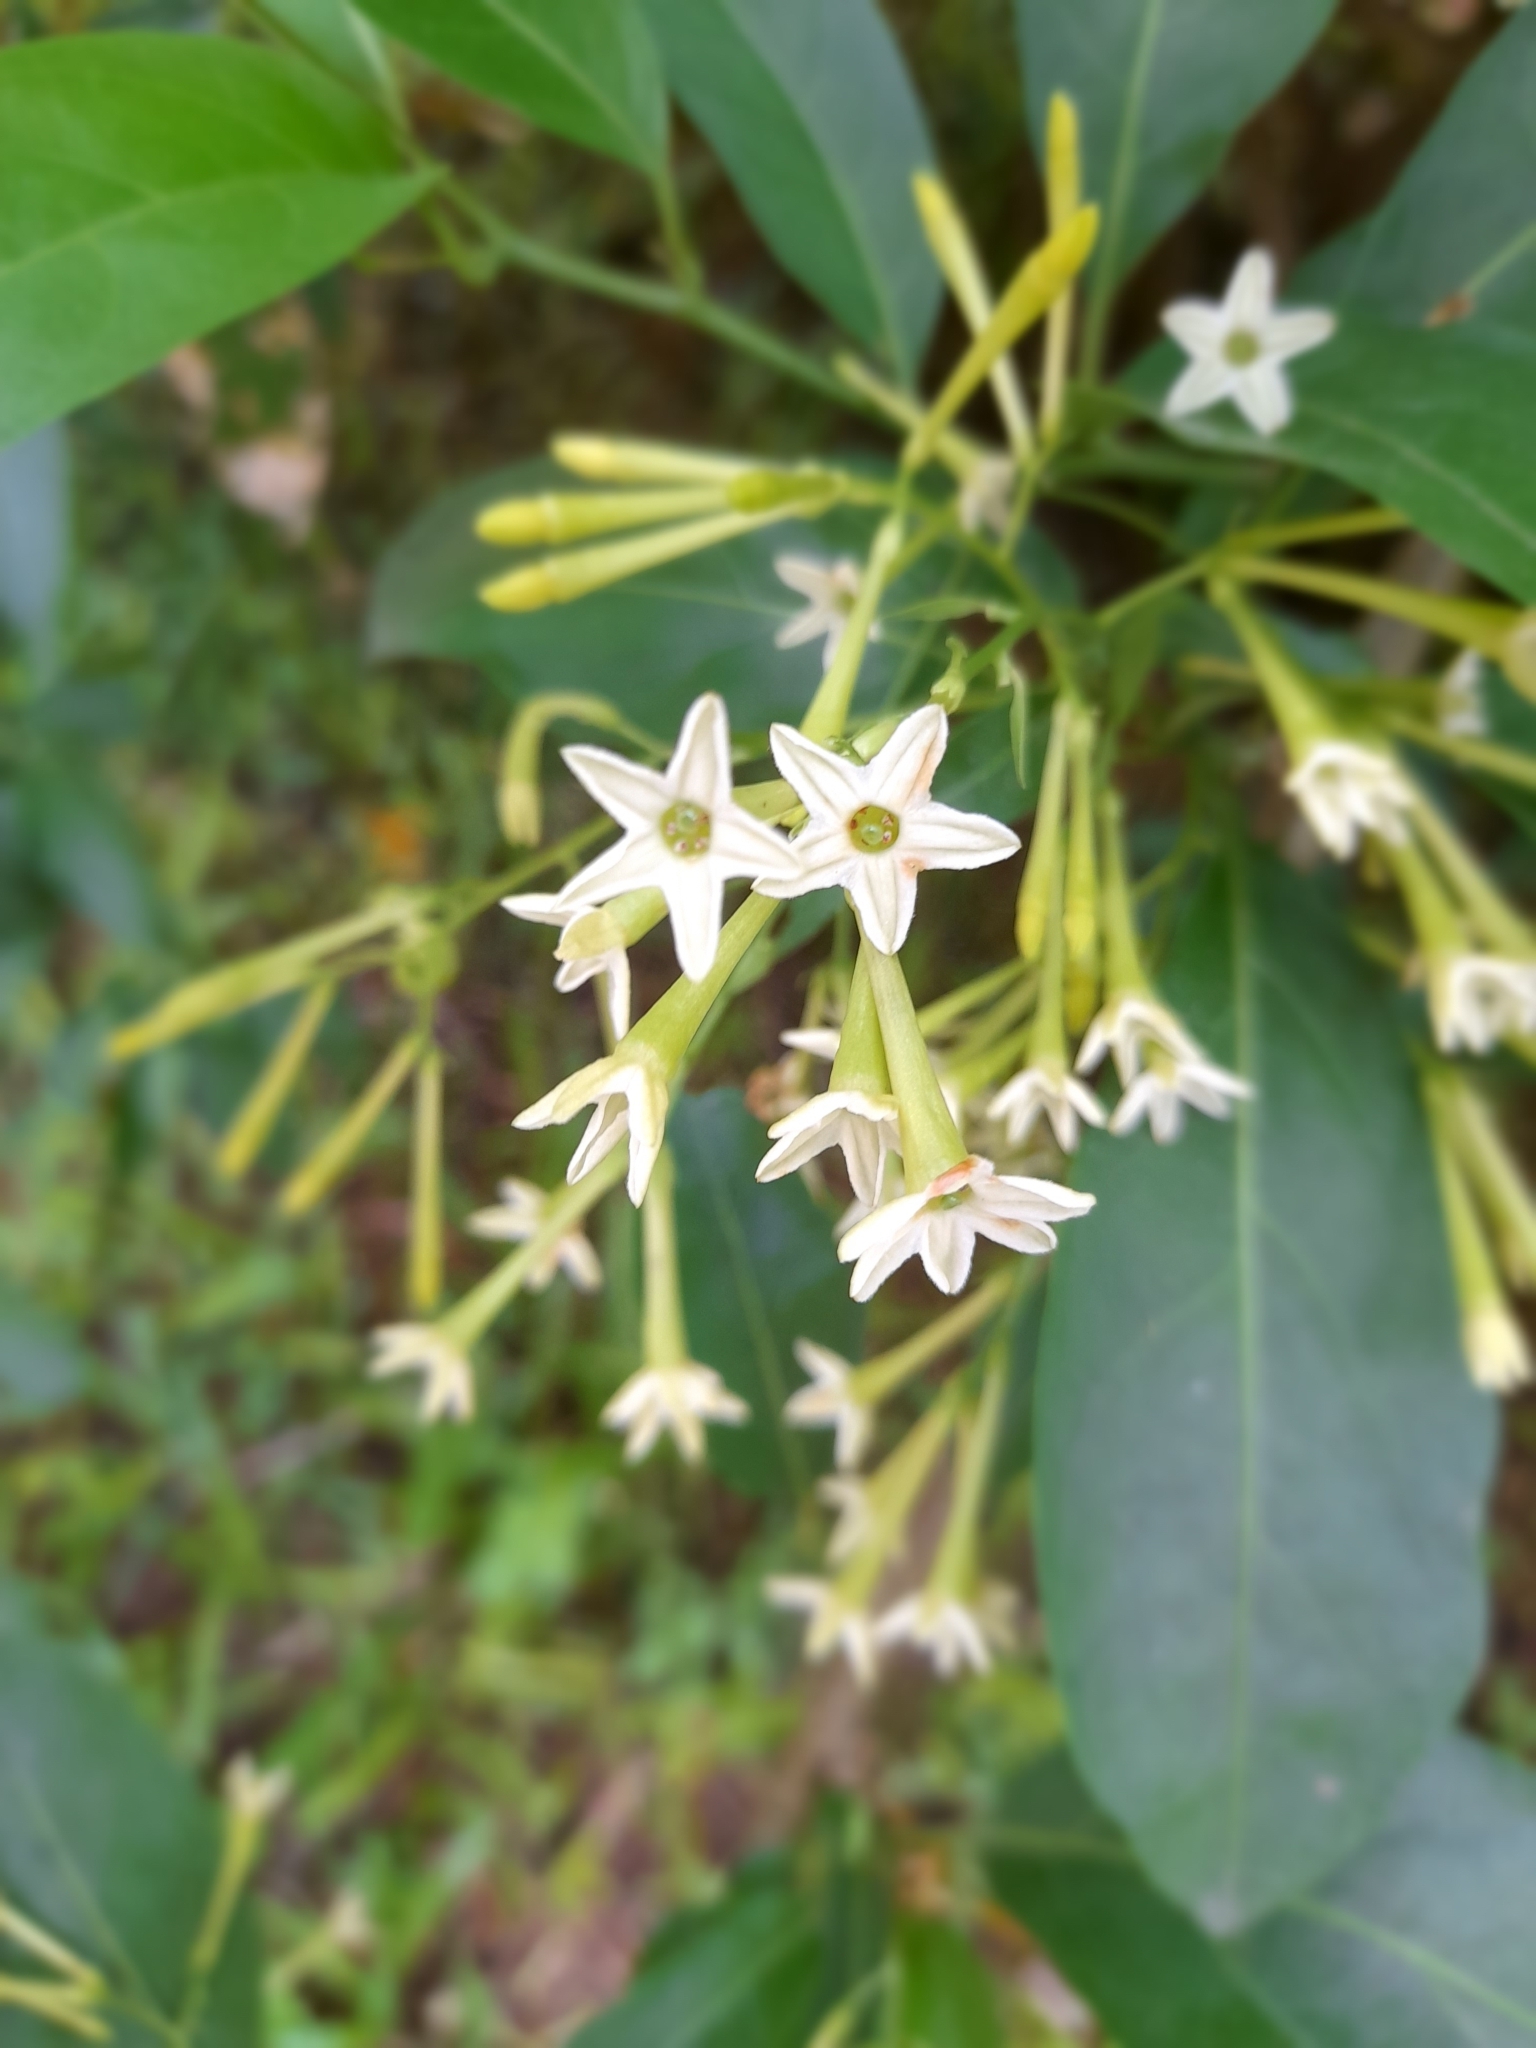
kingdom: Plantae
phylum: Tracheophyta
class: Magnoliopsida
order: Solanales
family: Solanaceae
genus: Cestrum
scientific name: Cestrum nocturnum
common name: Night jessamine
